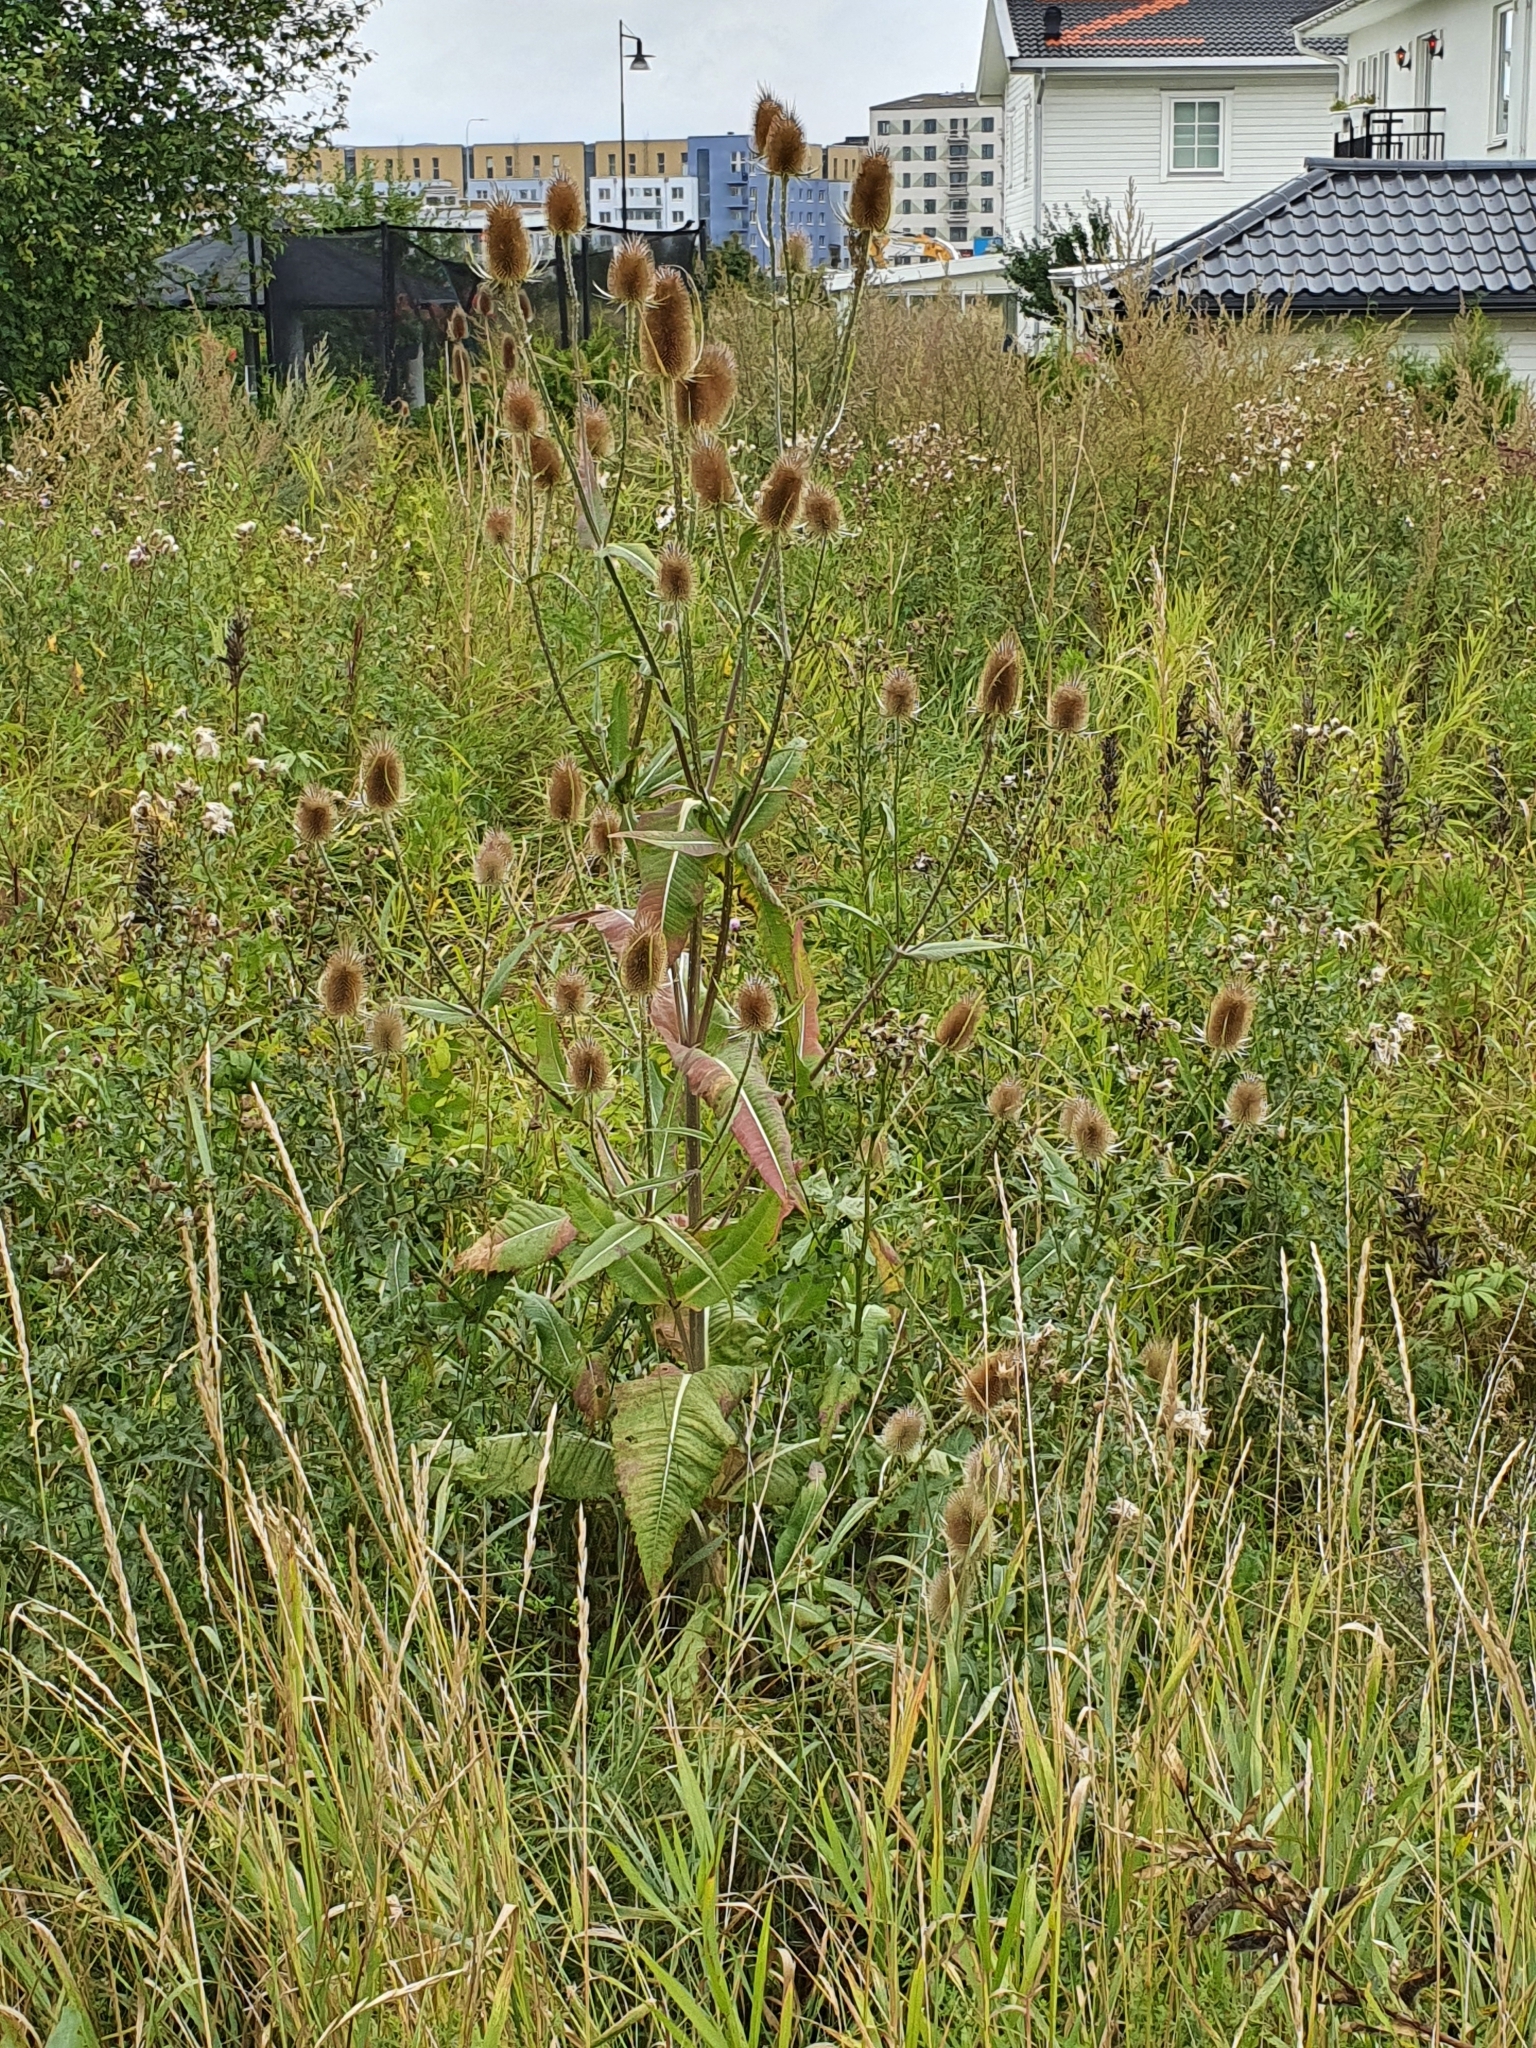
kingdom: Plantae
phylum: Tracheophyta
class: Magnoliopsida
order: Dipsacales
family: Caprifoliaceae
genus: Dipsacus
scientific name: Dipsacus fullonum
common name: Teasel
